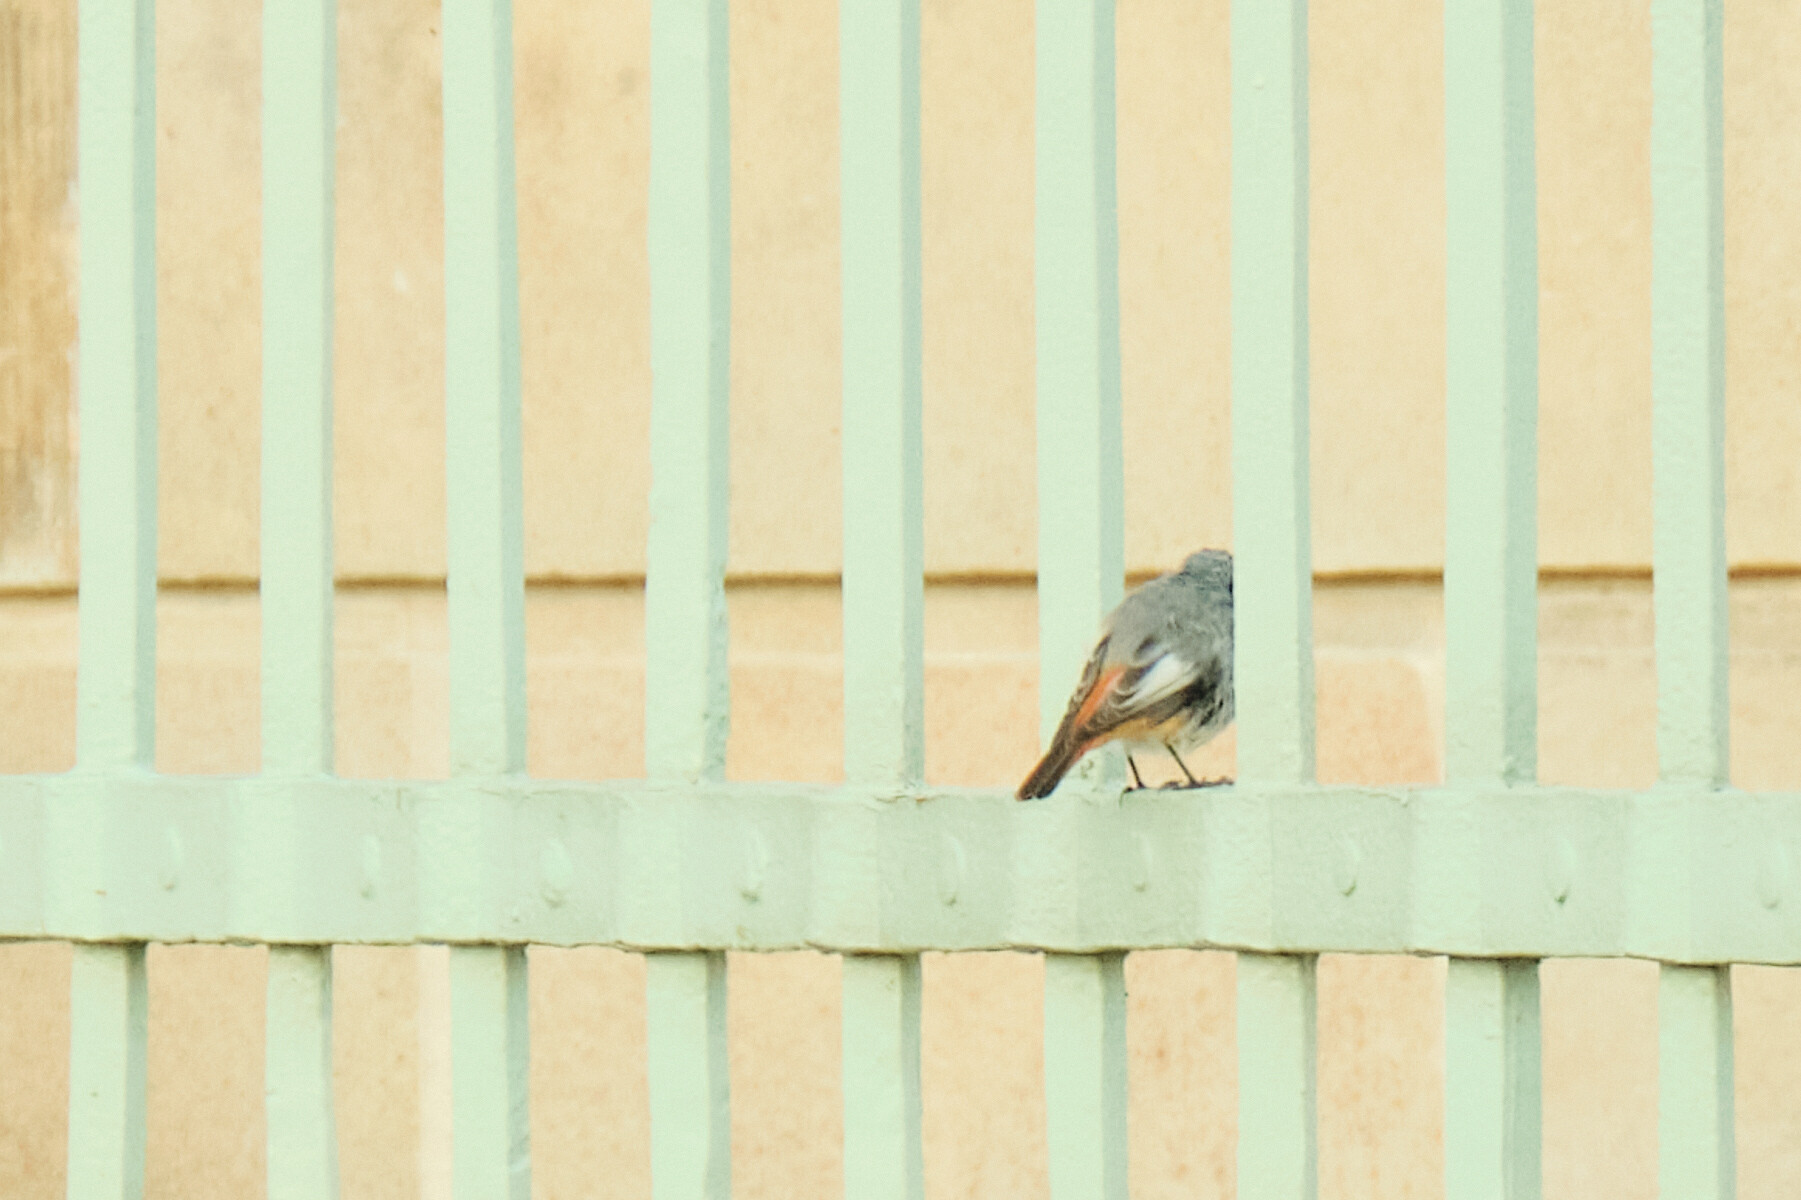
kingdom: Animalia
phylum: Chordata
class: Aves
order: Passeriformes
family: Muscicapidae
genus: Phoenicurus
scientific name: Phoenicurus ochruros
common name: Black redstart
